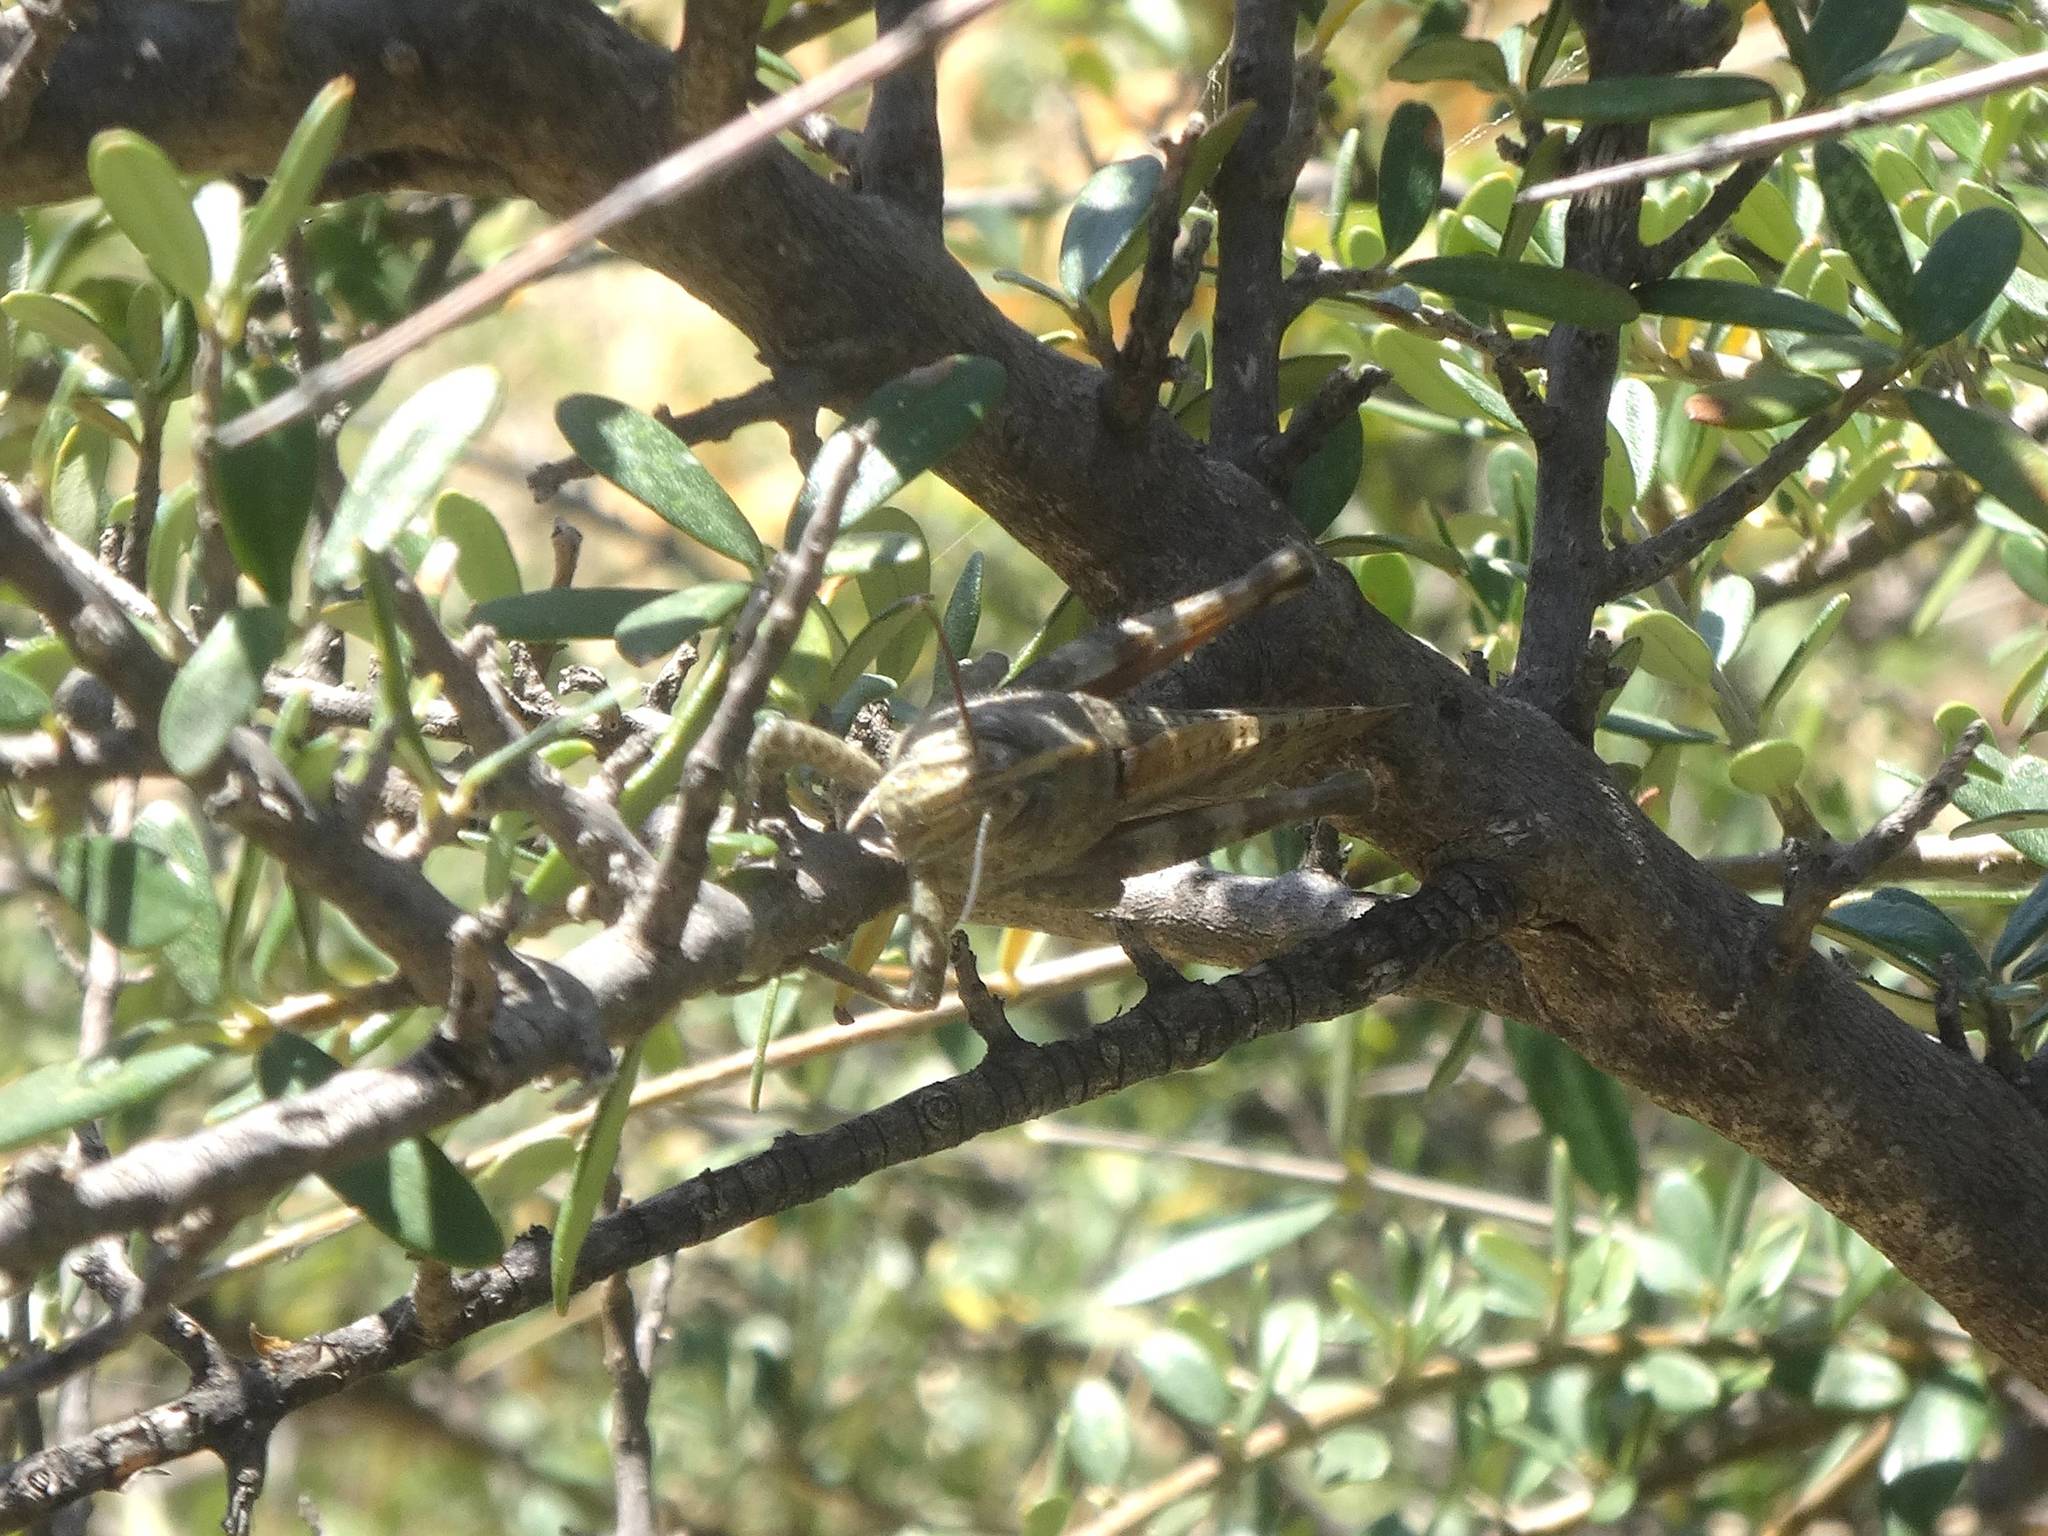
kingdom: Animalia
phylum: Arthropoda
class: Insecta
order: Orthoptera
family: Acrididae
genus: Anacridium
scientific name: Anacridium aegyptium
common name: Egyptian grasshopper
